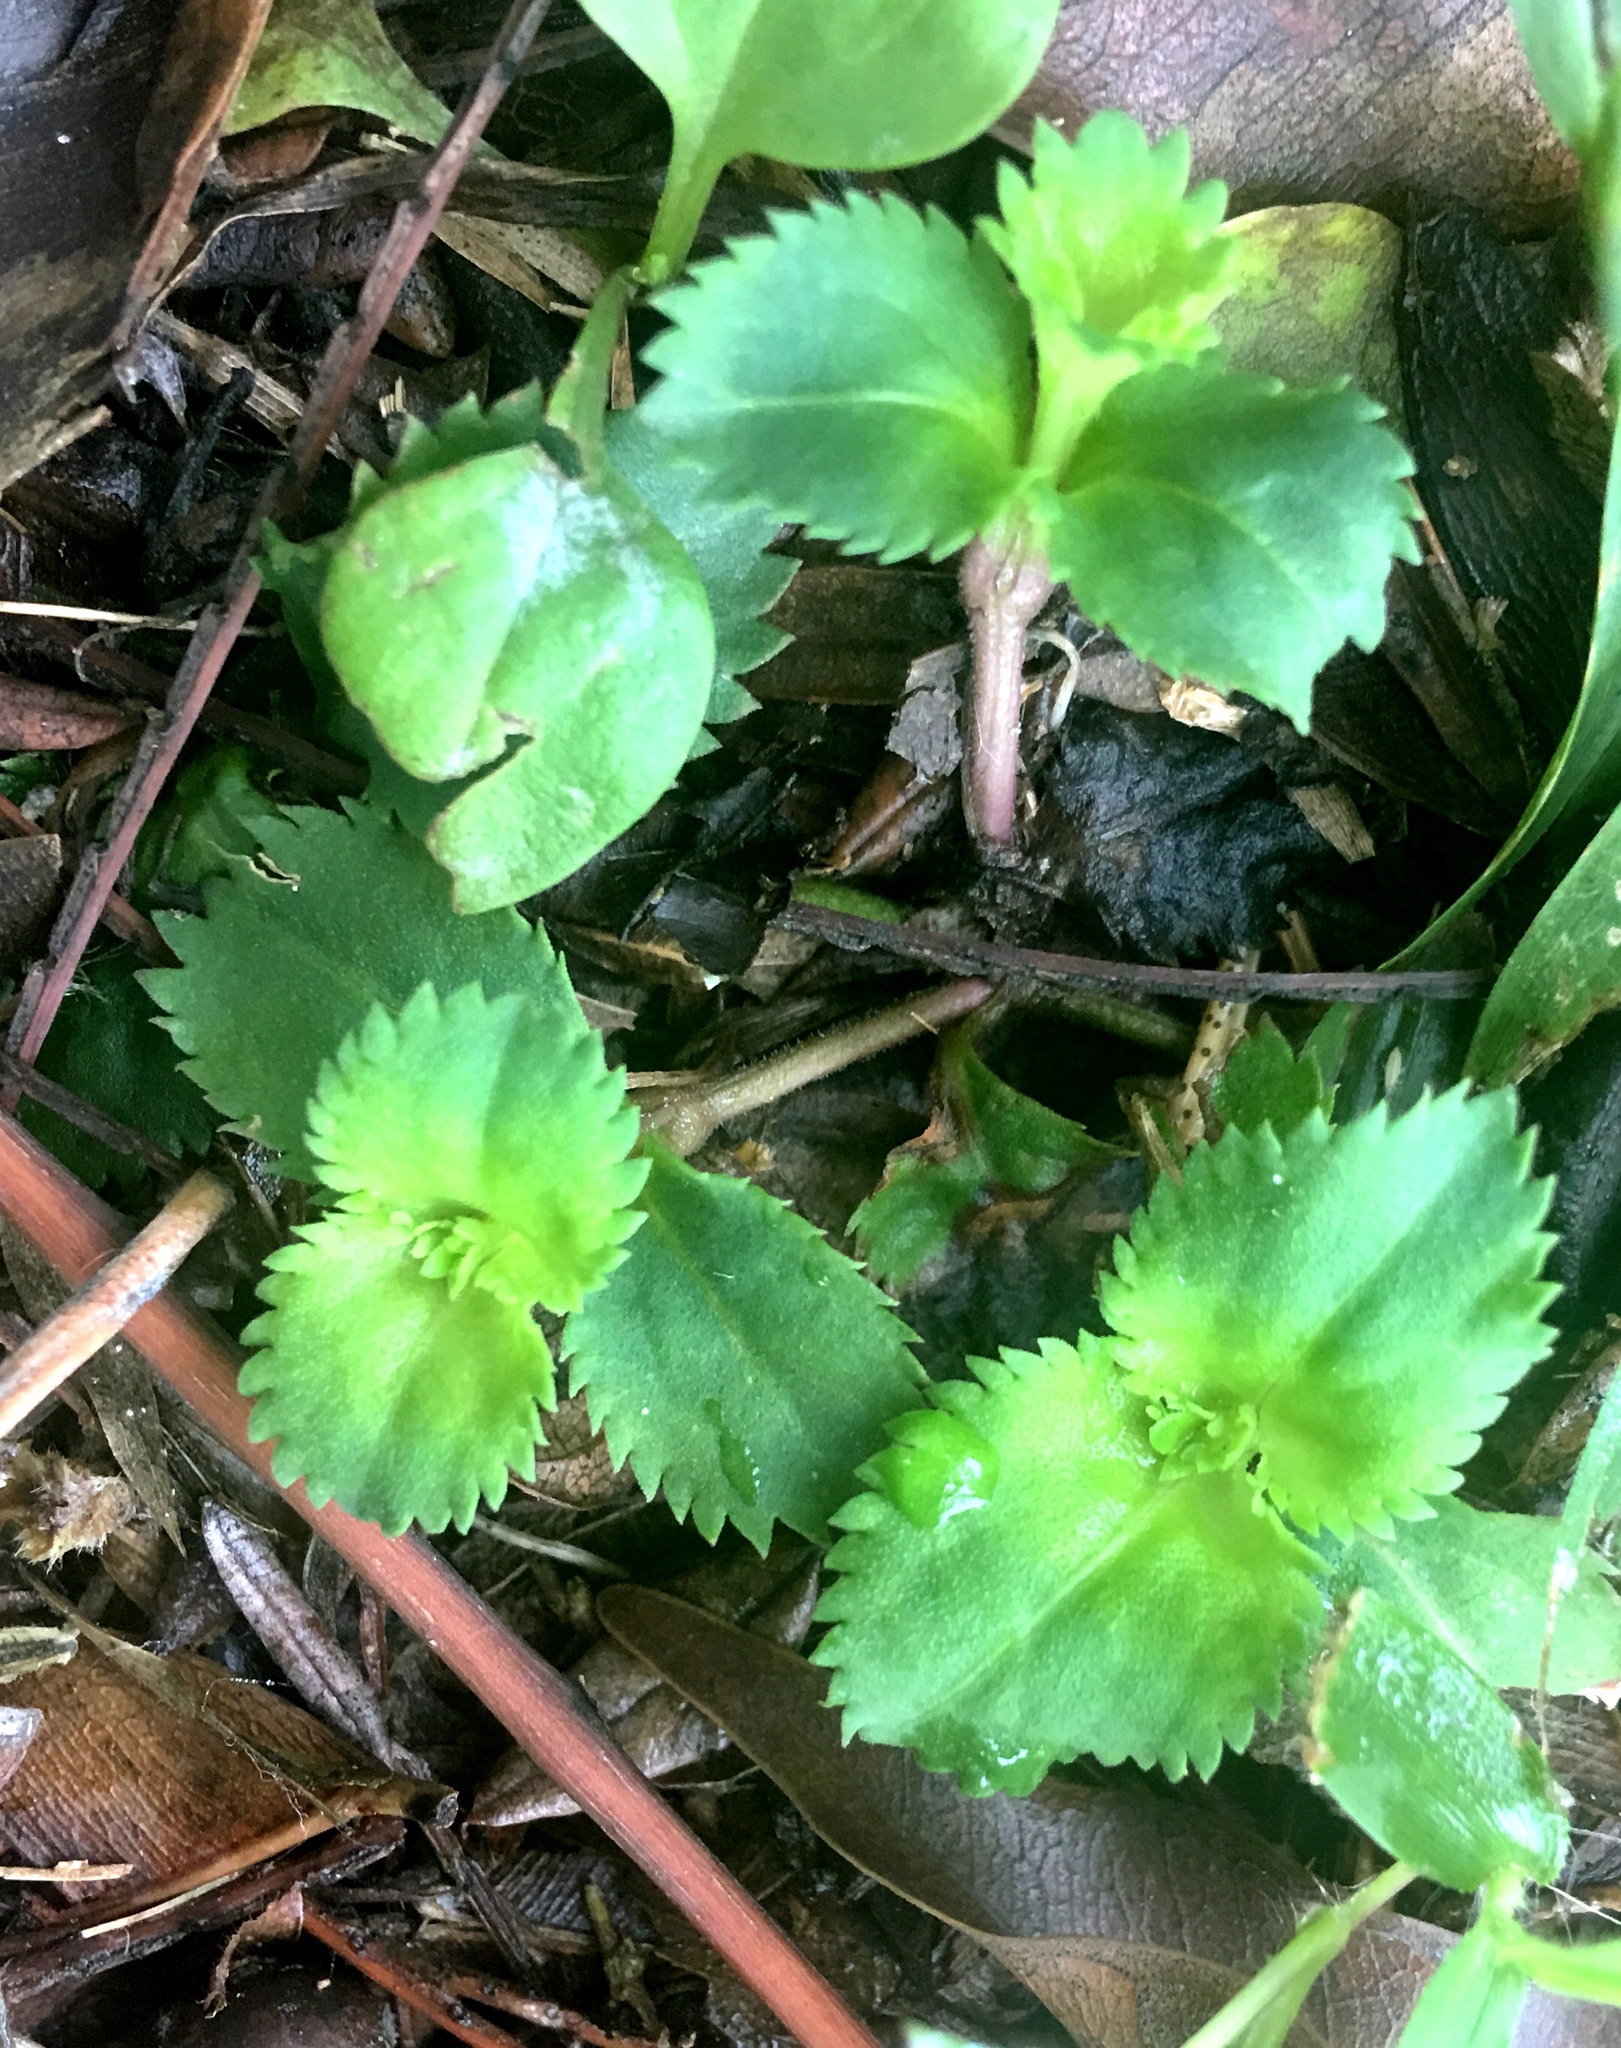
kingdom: Plantae
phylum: Tracheophyta
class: Magnoliopsida
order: Lamiales
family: Linderniaceae
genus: Bonnaya
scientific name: Bonnaya ruelloides
